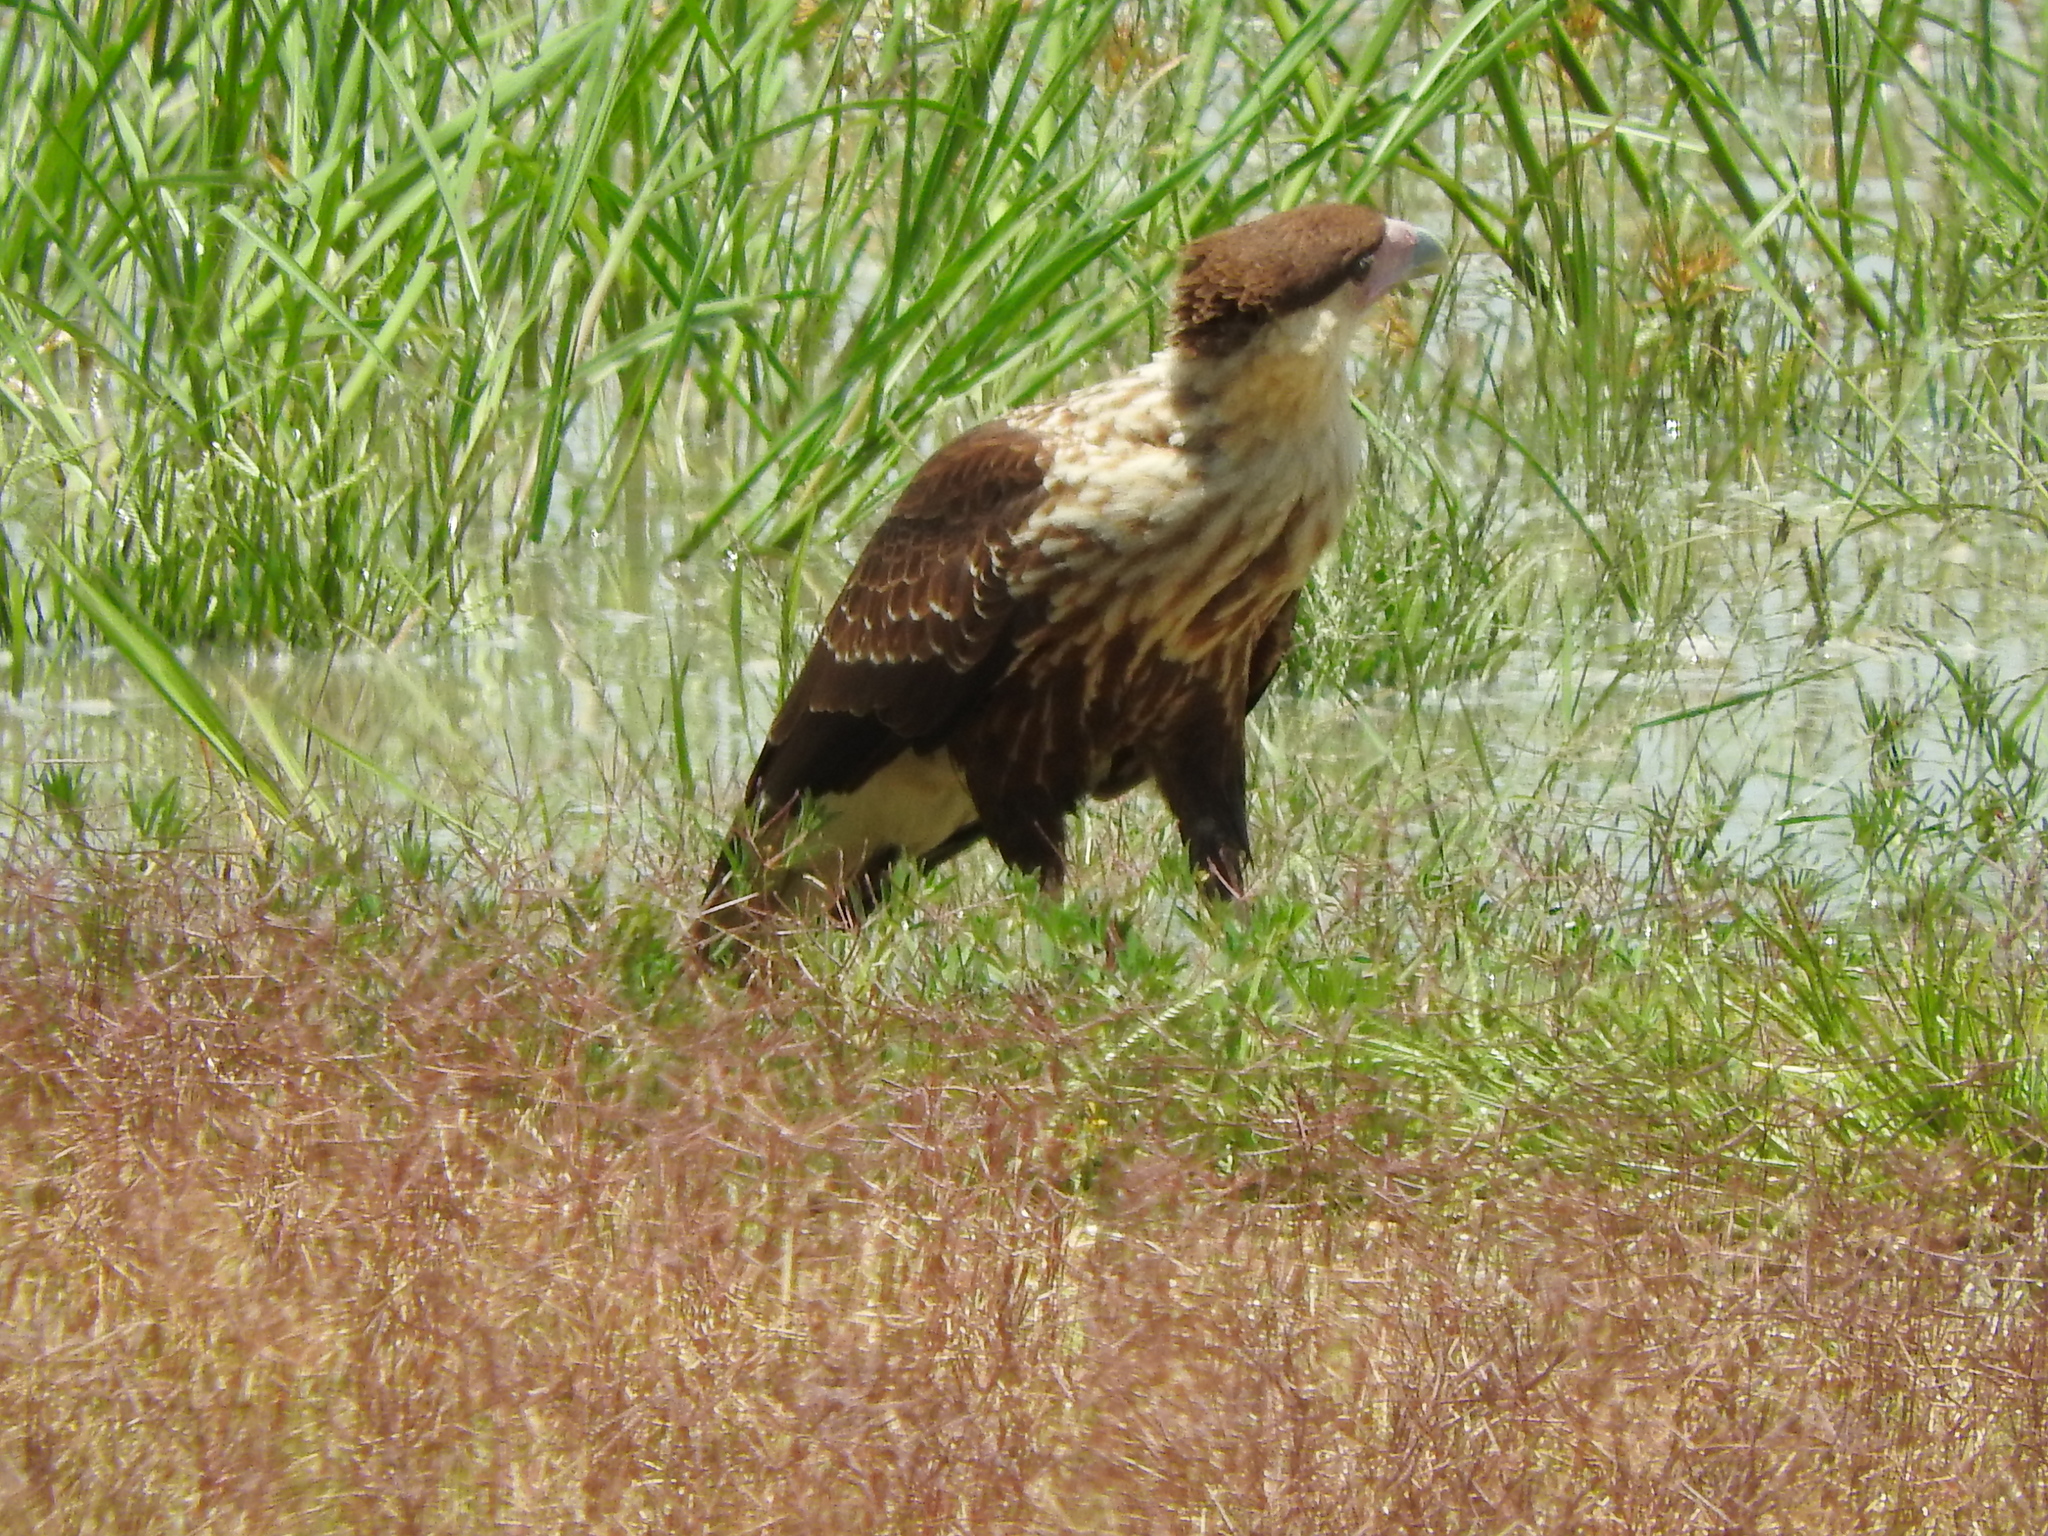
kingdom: Animalia
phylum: Chordata
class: Aves
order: Falconiformes
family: Falconidae
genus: Caracara
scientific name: Caracara plancus
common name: Southern caracara
